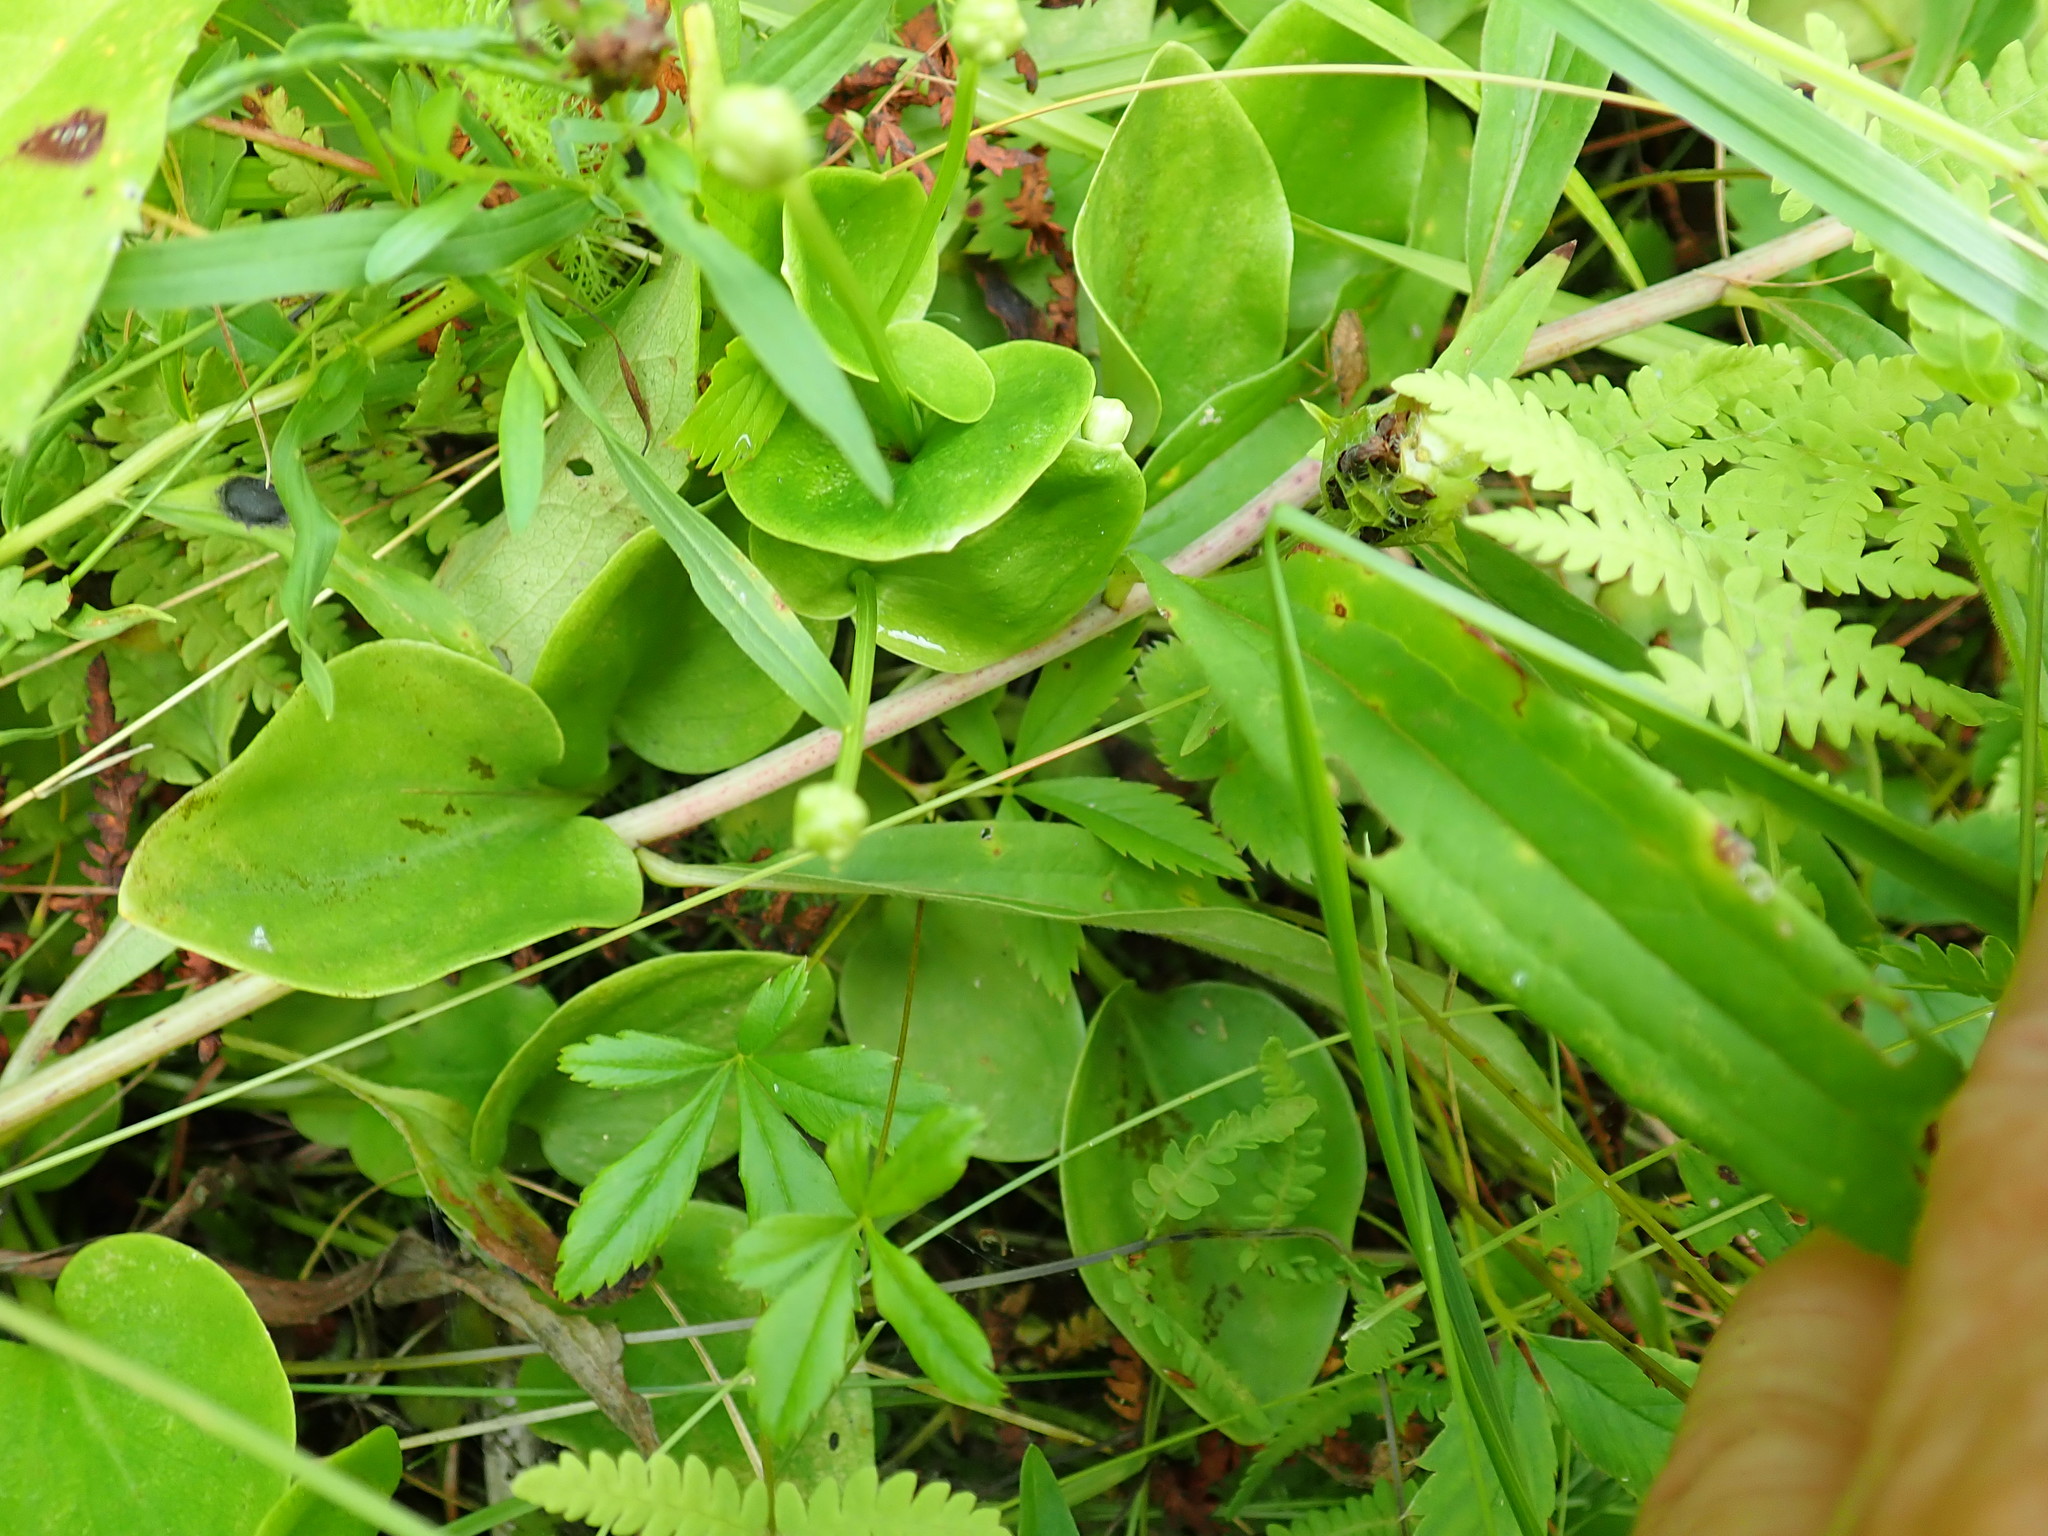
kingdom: Plantae
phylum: Tracheophyta
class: Magnoliopsida
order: Celastrales
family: Parnassiaceae
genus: Parnassia
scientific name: Parnassia glauca
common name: American grass-of-parnassus
